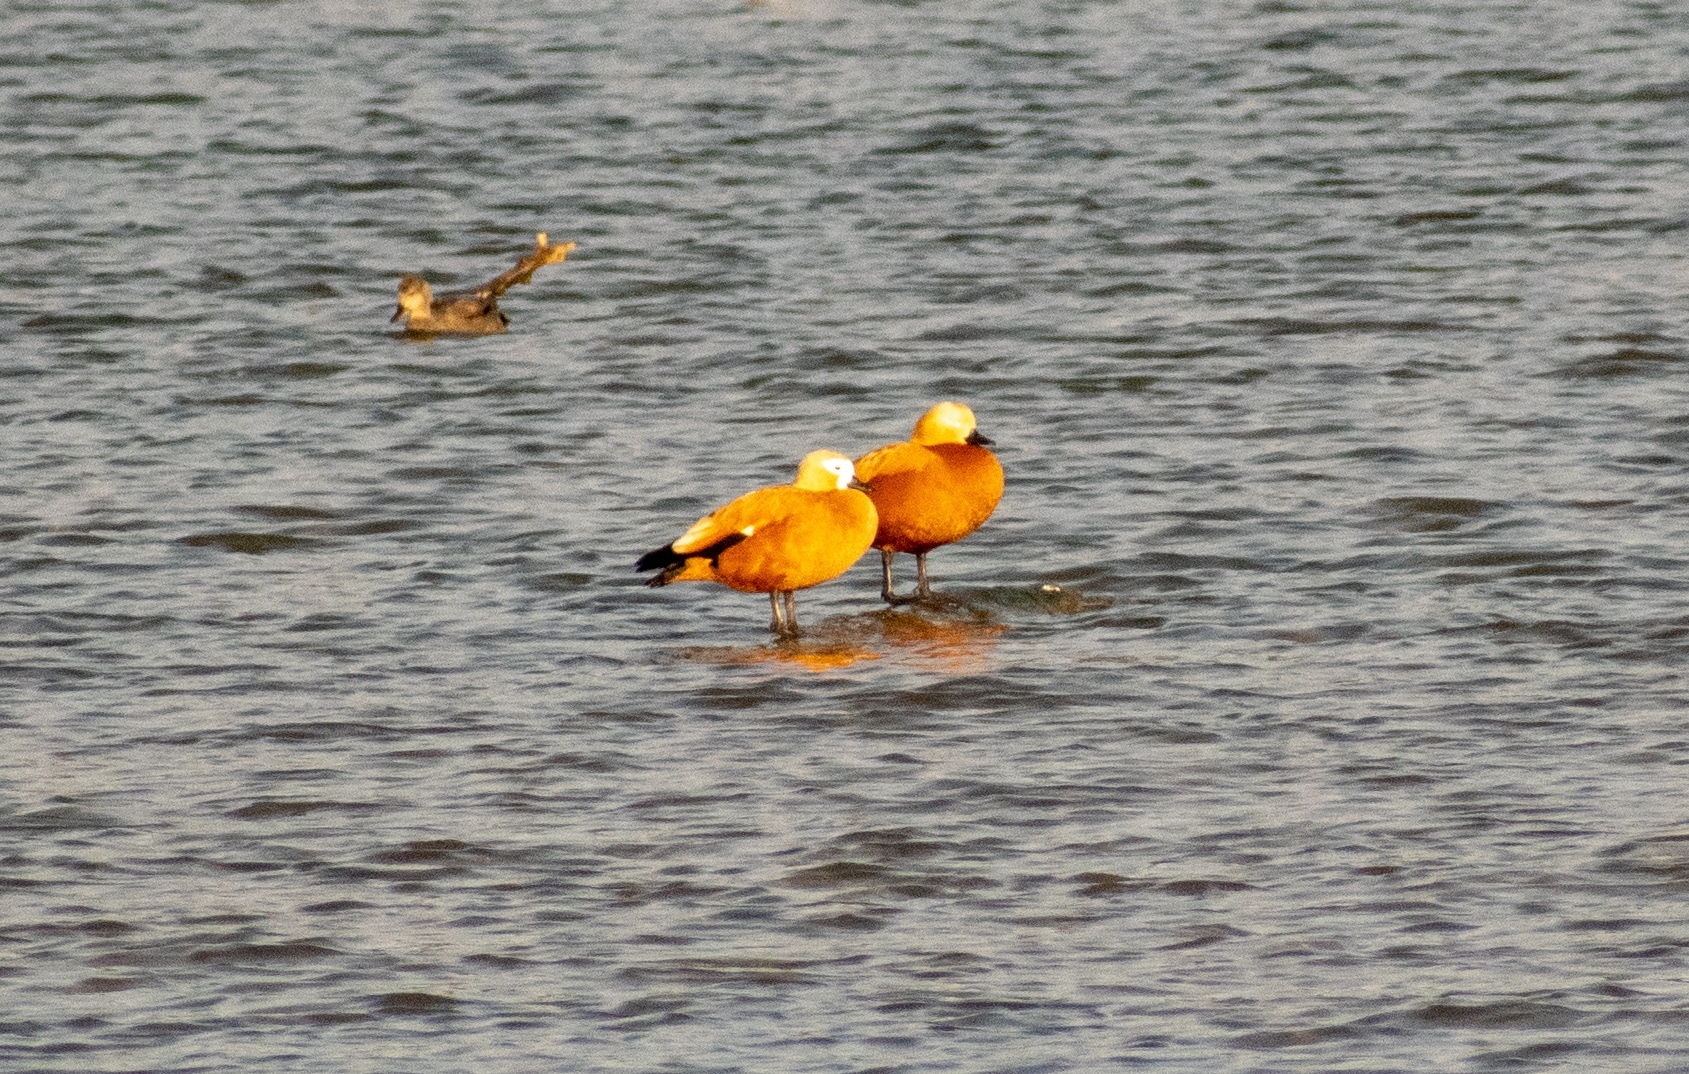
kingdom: Animalia
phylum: Chordata
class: Aves
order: Anseriformes
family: Anatidae
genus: Tadorna
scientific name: Tadorna ferruginea
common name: Ruddy shelduck
